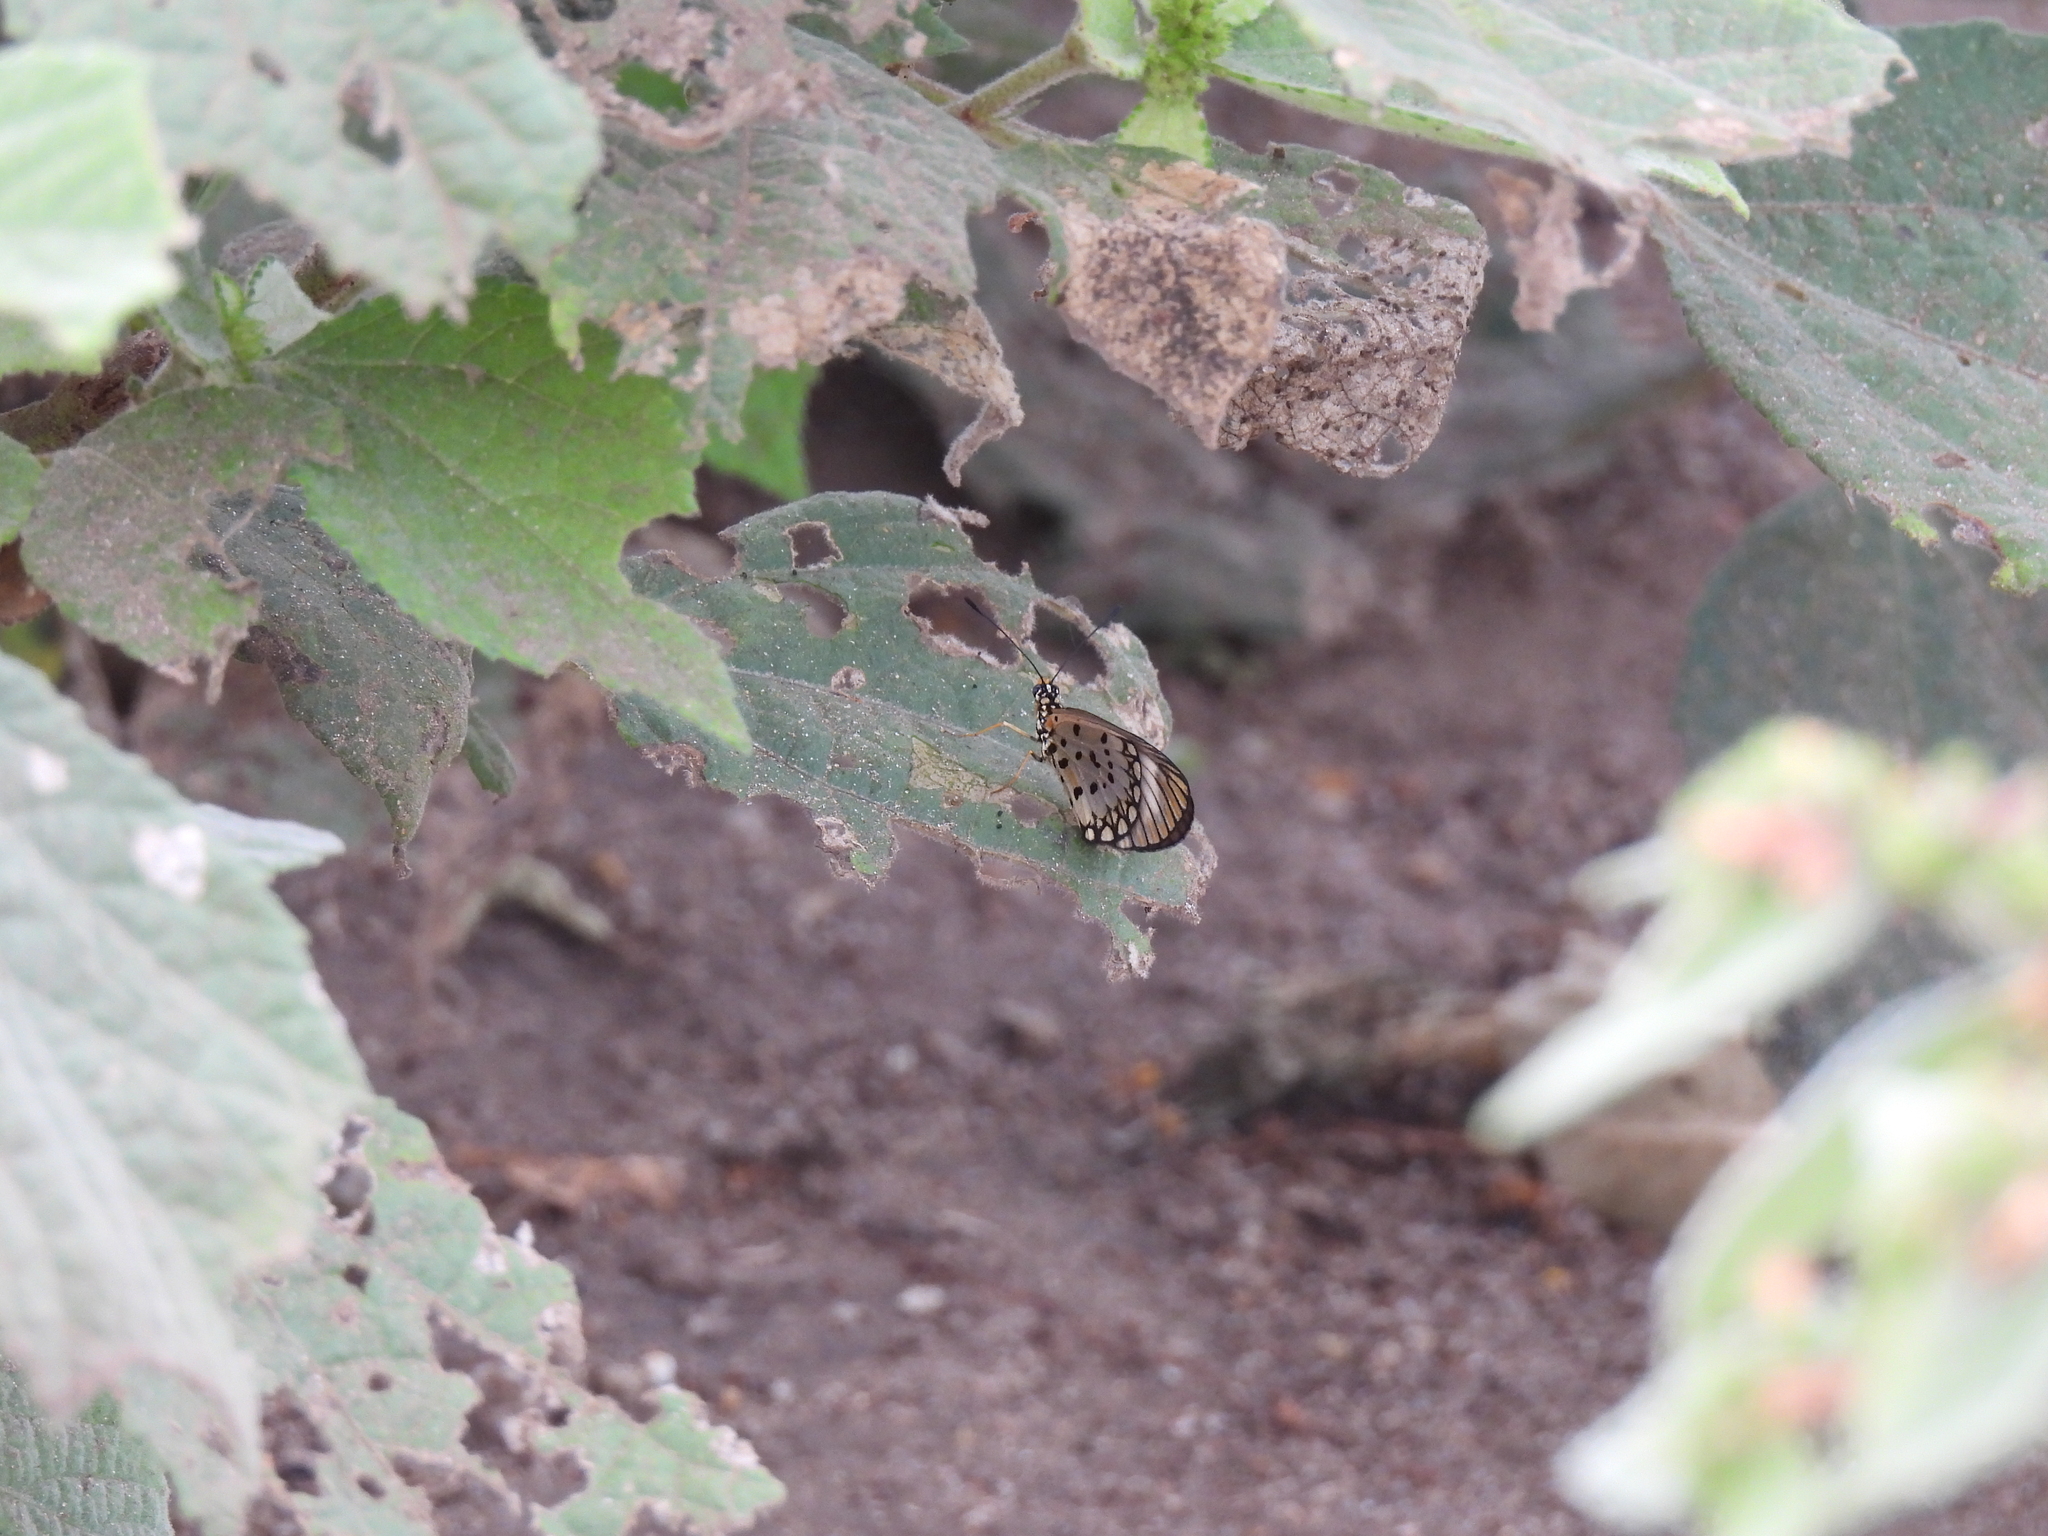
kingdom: Animalia
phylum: Arthropoda
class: Insecta
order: Lepidoptera
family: Nymphalidae
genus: Acraea
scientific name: Acraea Telchinia serena
